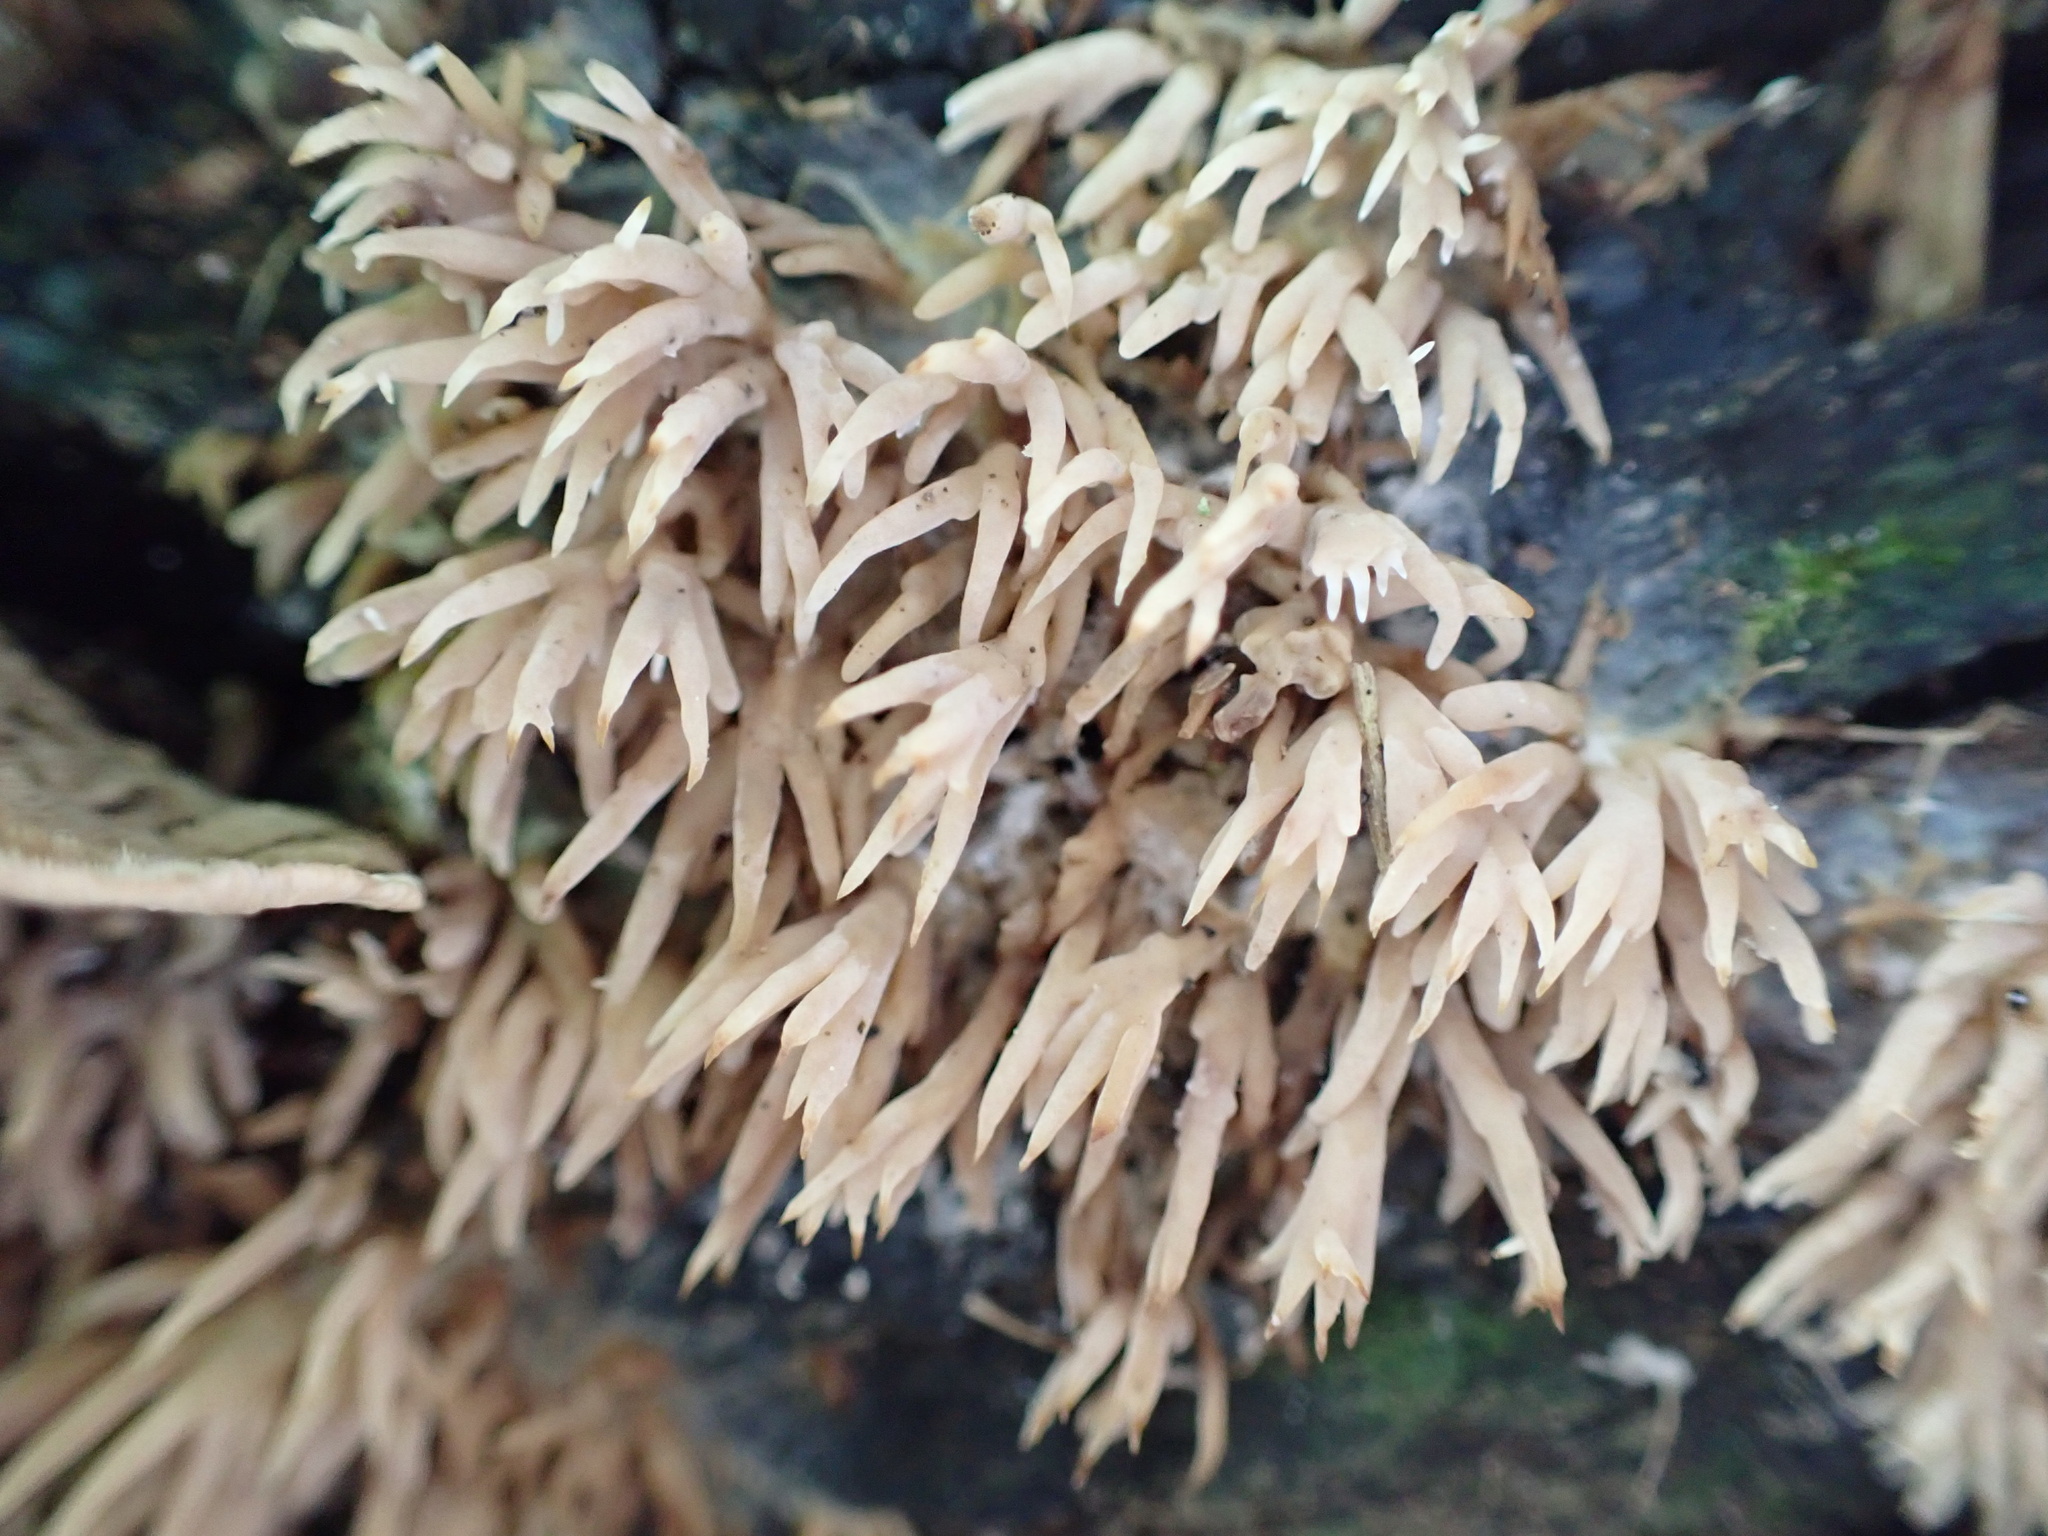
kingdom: Fungi
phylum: Basidiomycota
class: Agaricomycetes
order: Agaricales
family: Radulomycetaceae
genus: Radulomyces
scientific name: Radulomyces copelandii
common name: Asian beauty
